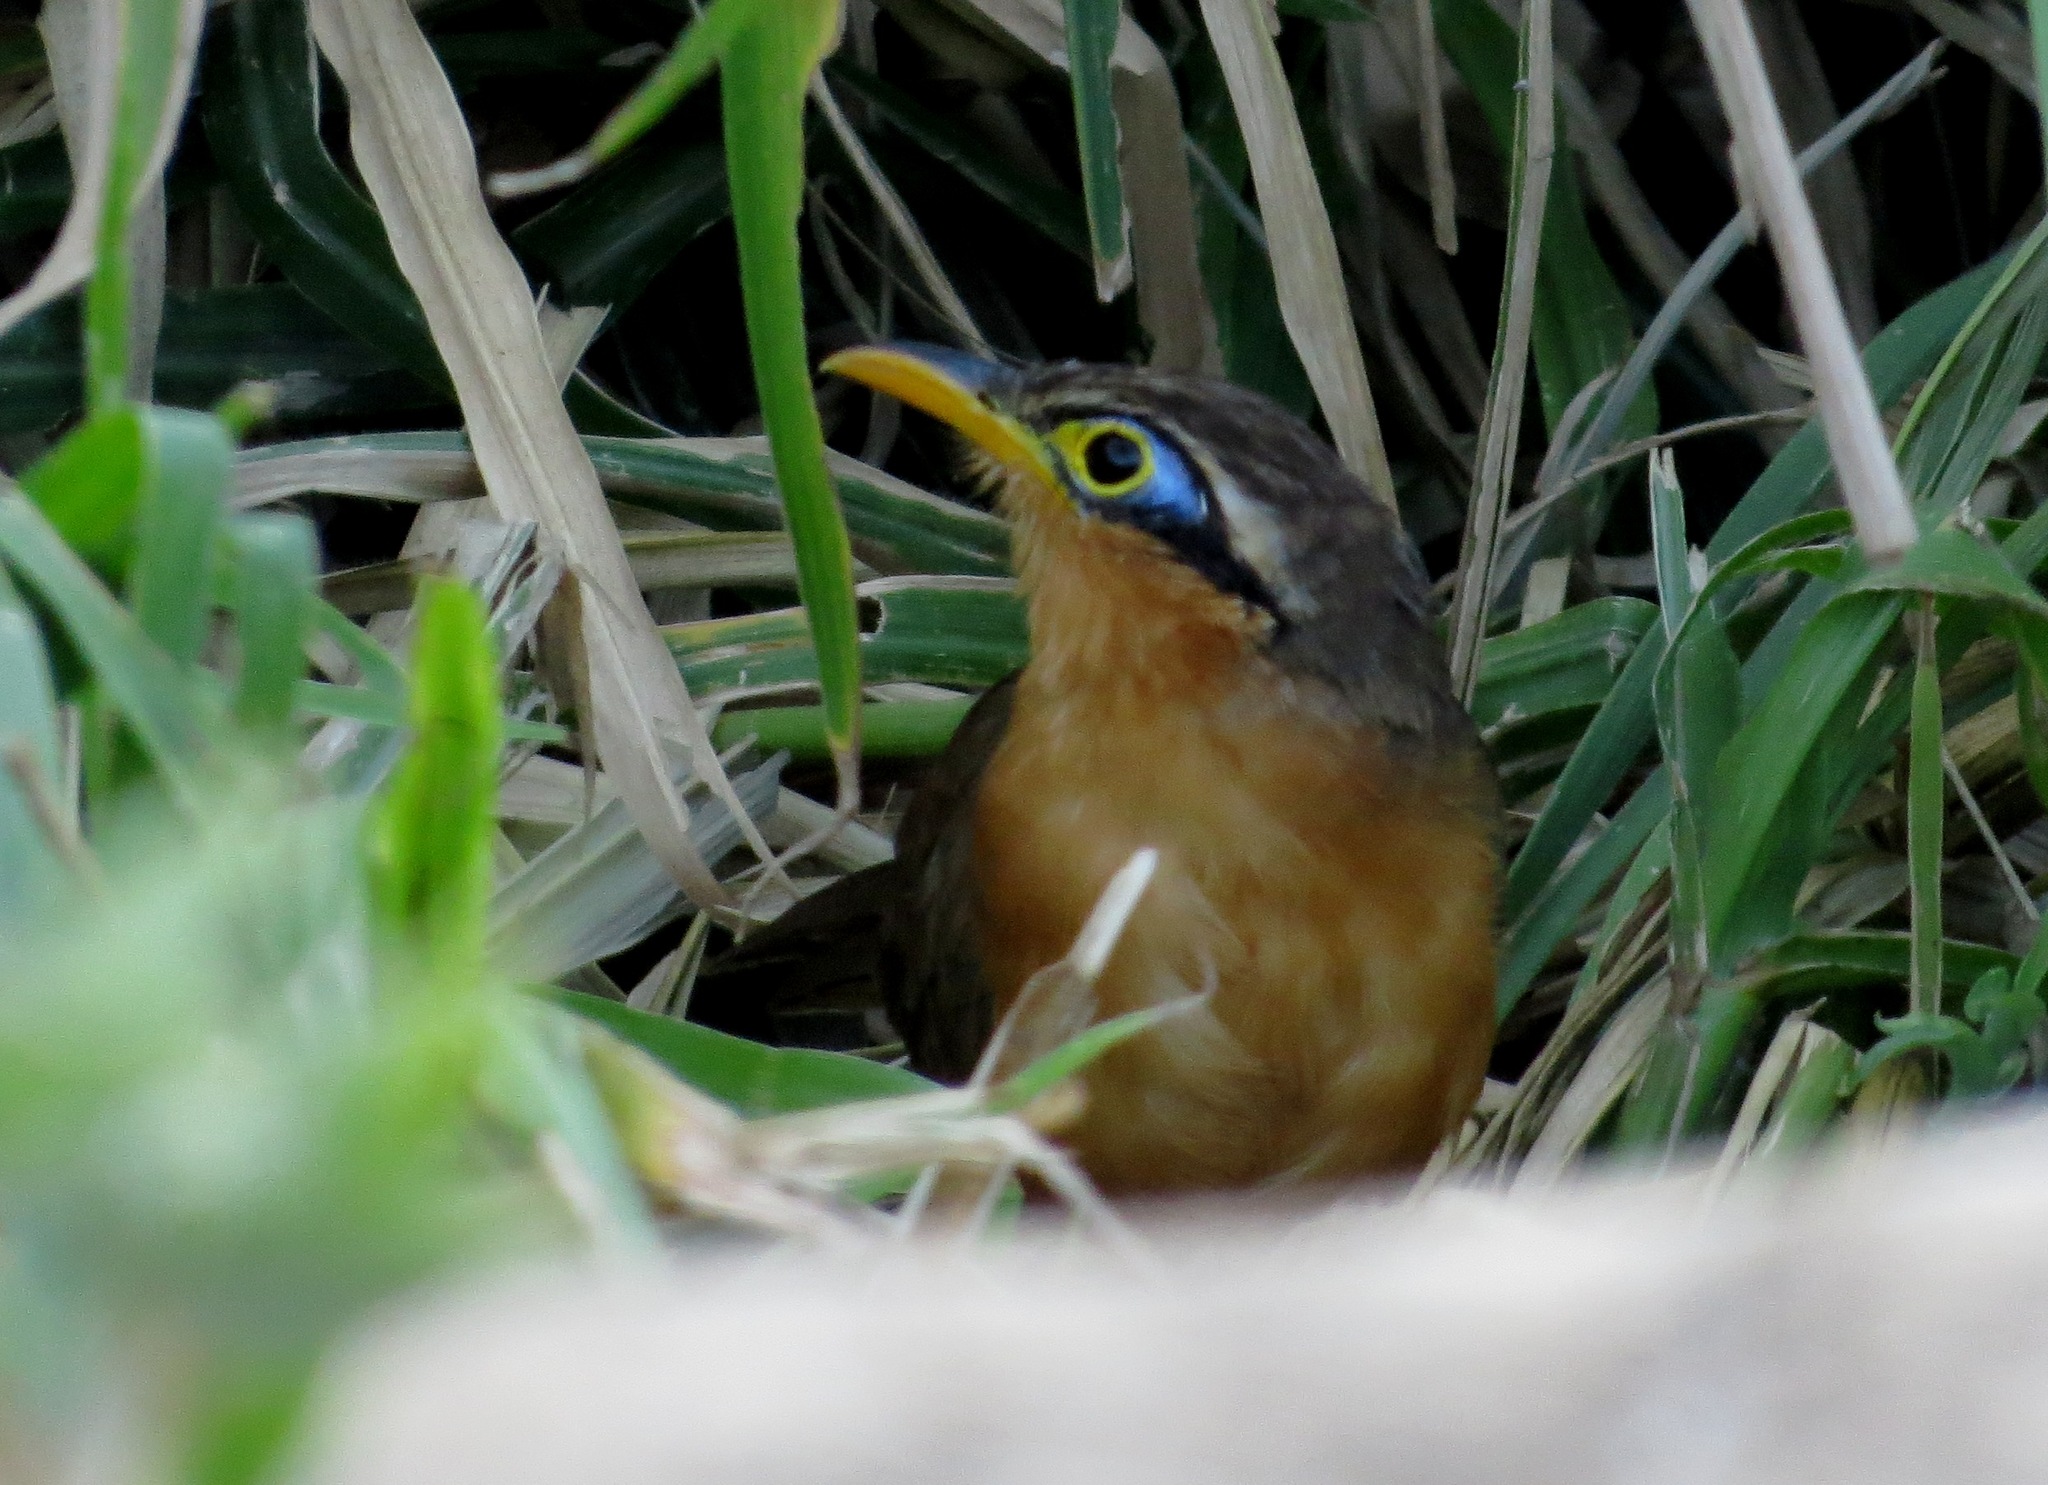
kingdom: Animalia
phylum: Chordata
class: Aves
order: Cuculiformes
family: Cuculidae
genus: Morococcyx
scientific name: Morococcyx erythropygus
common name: Lesser ground-cuckoo
